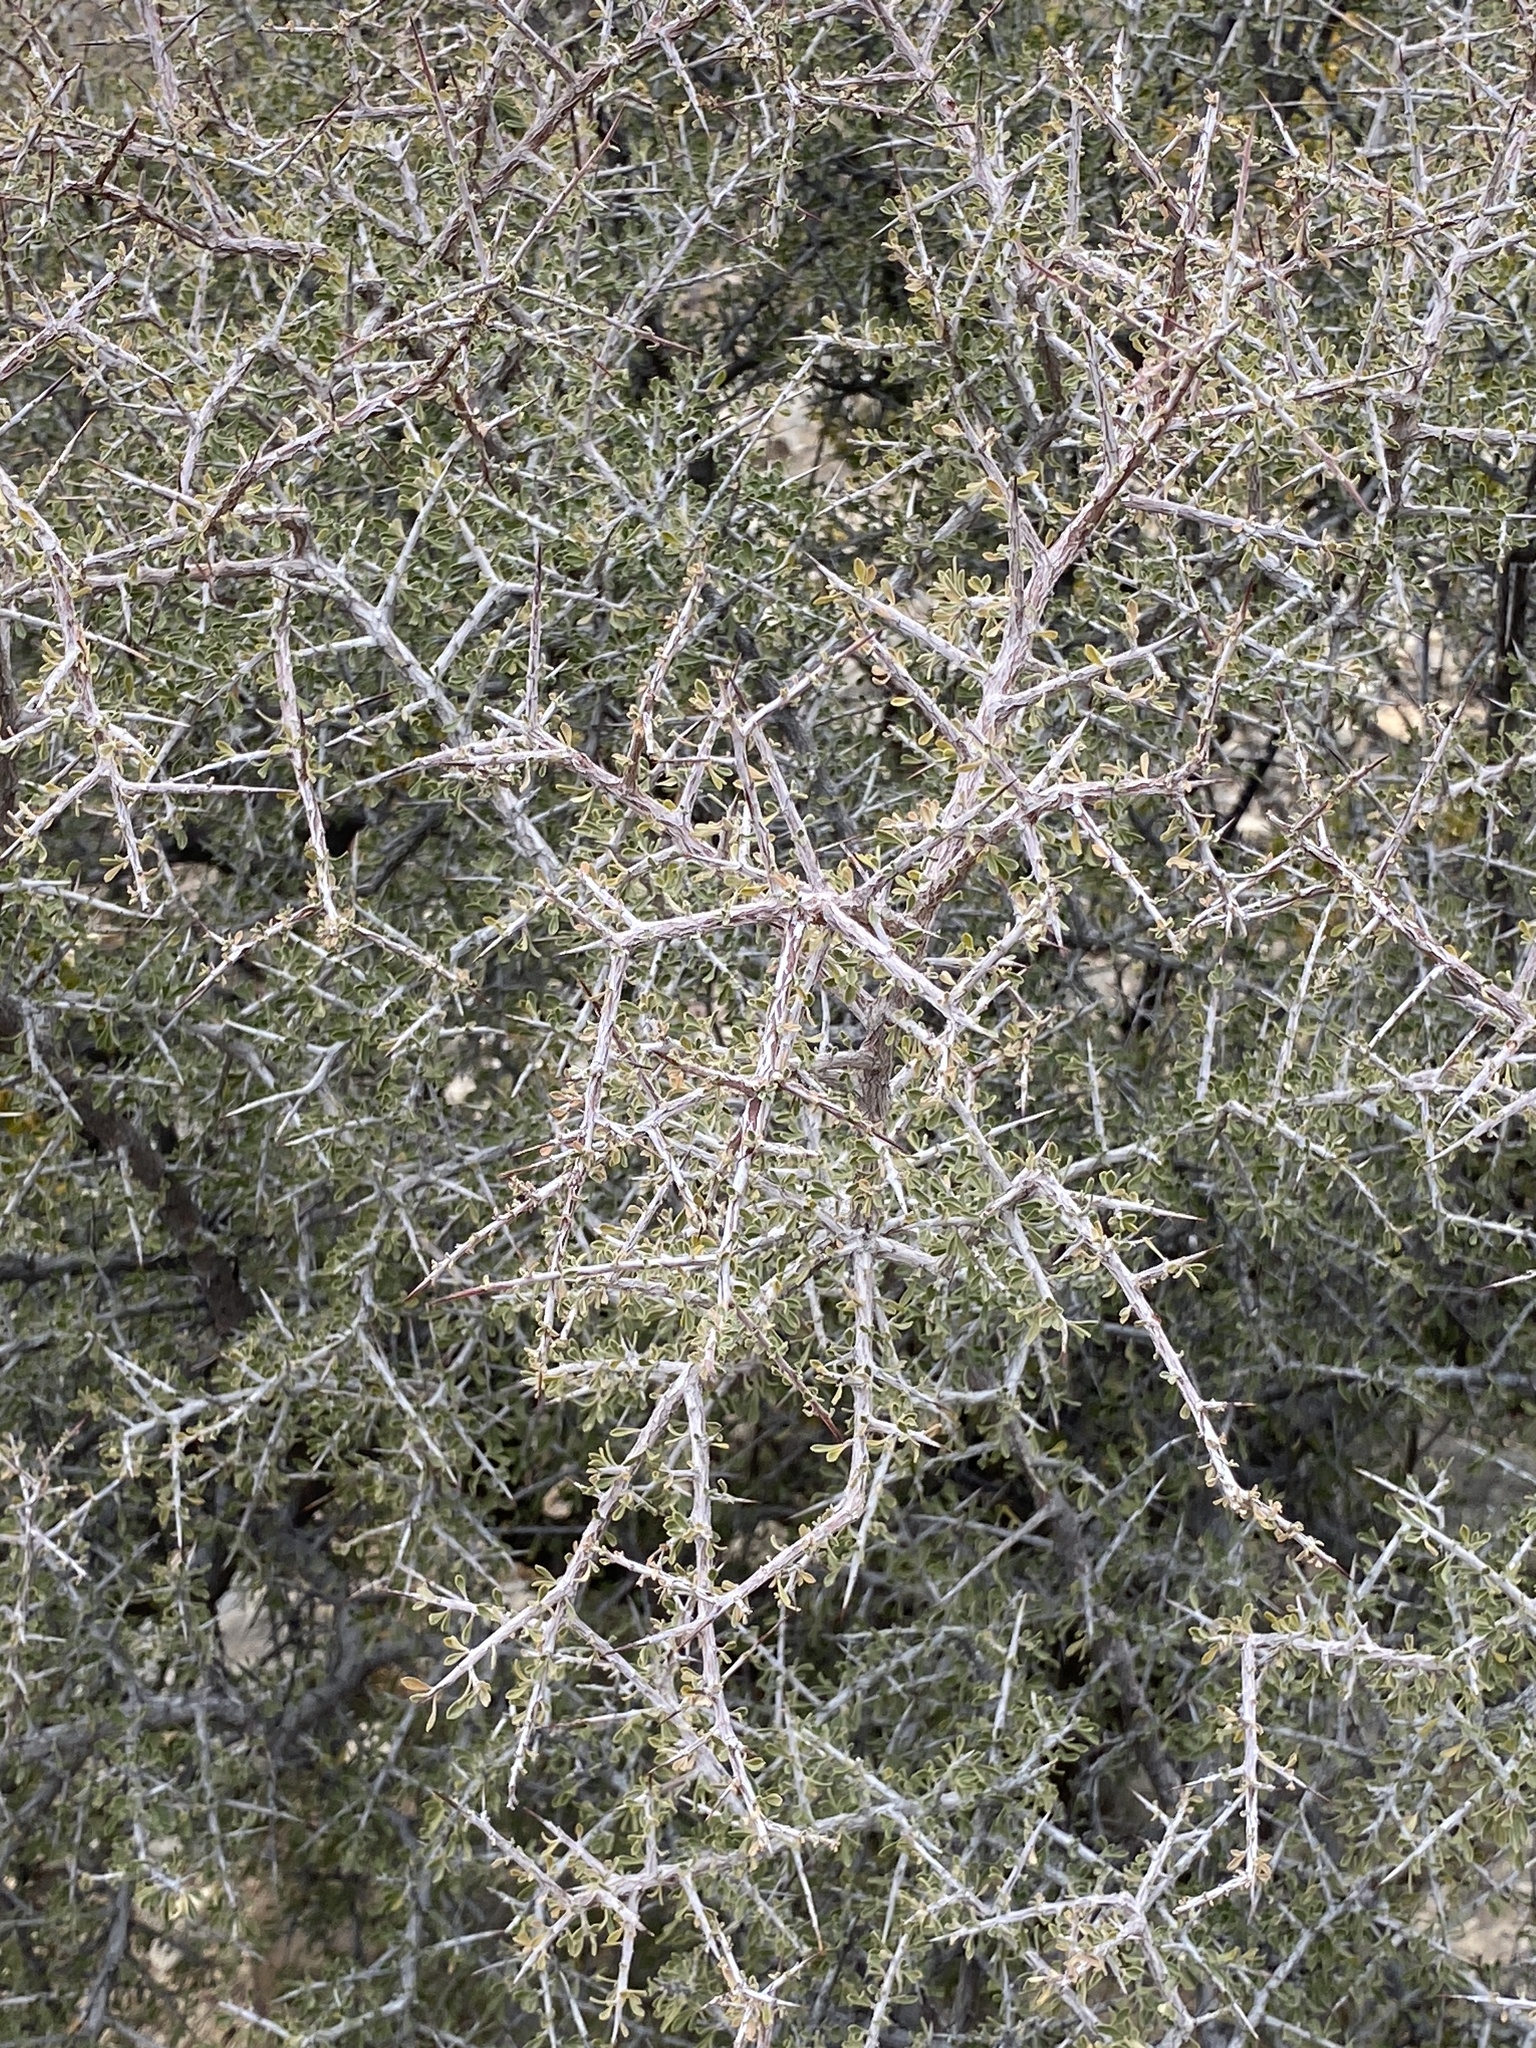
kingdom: Plantae
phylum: Tracheophyta
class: Magnoliopsida
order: Rosales
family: Rhamnaceae
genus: Condalia
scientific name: Condalia warnockii
